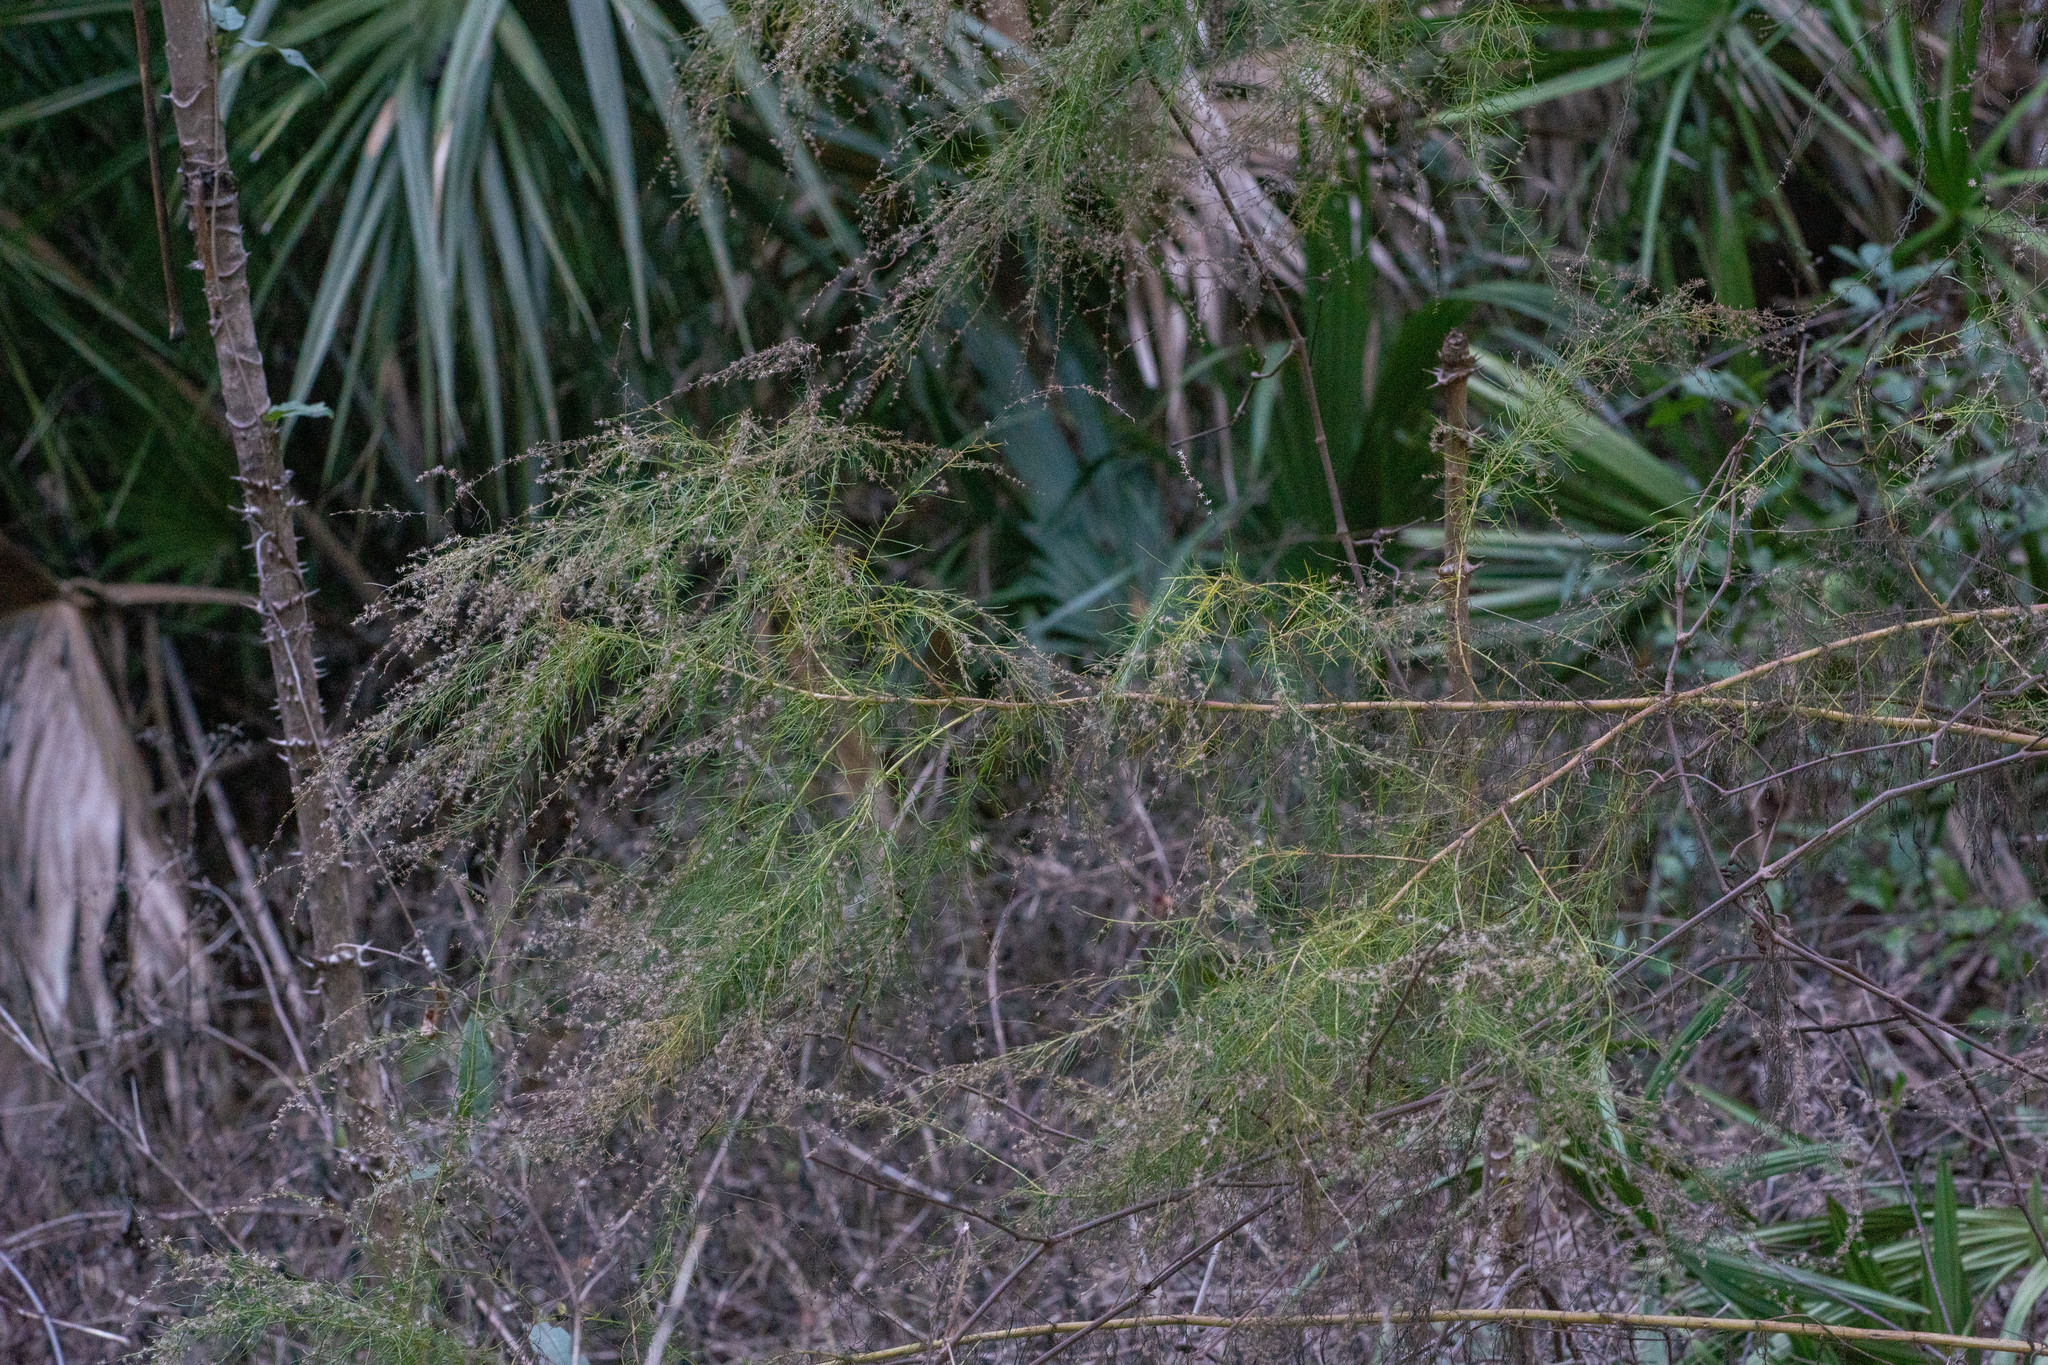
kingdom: Plantae
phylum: Tracheophyta
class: Magnoliopsida
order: Asterales
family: Asteraceae
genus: Eupatorium
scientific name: Eupatorium leptophyllum
